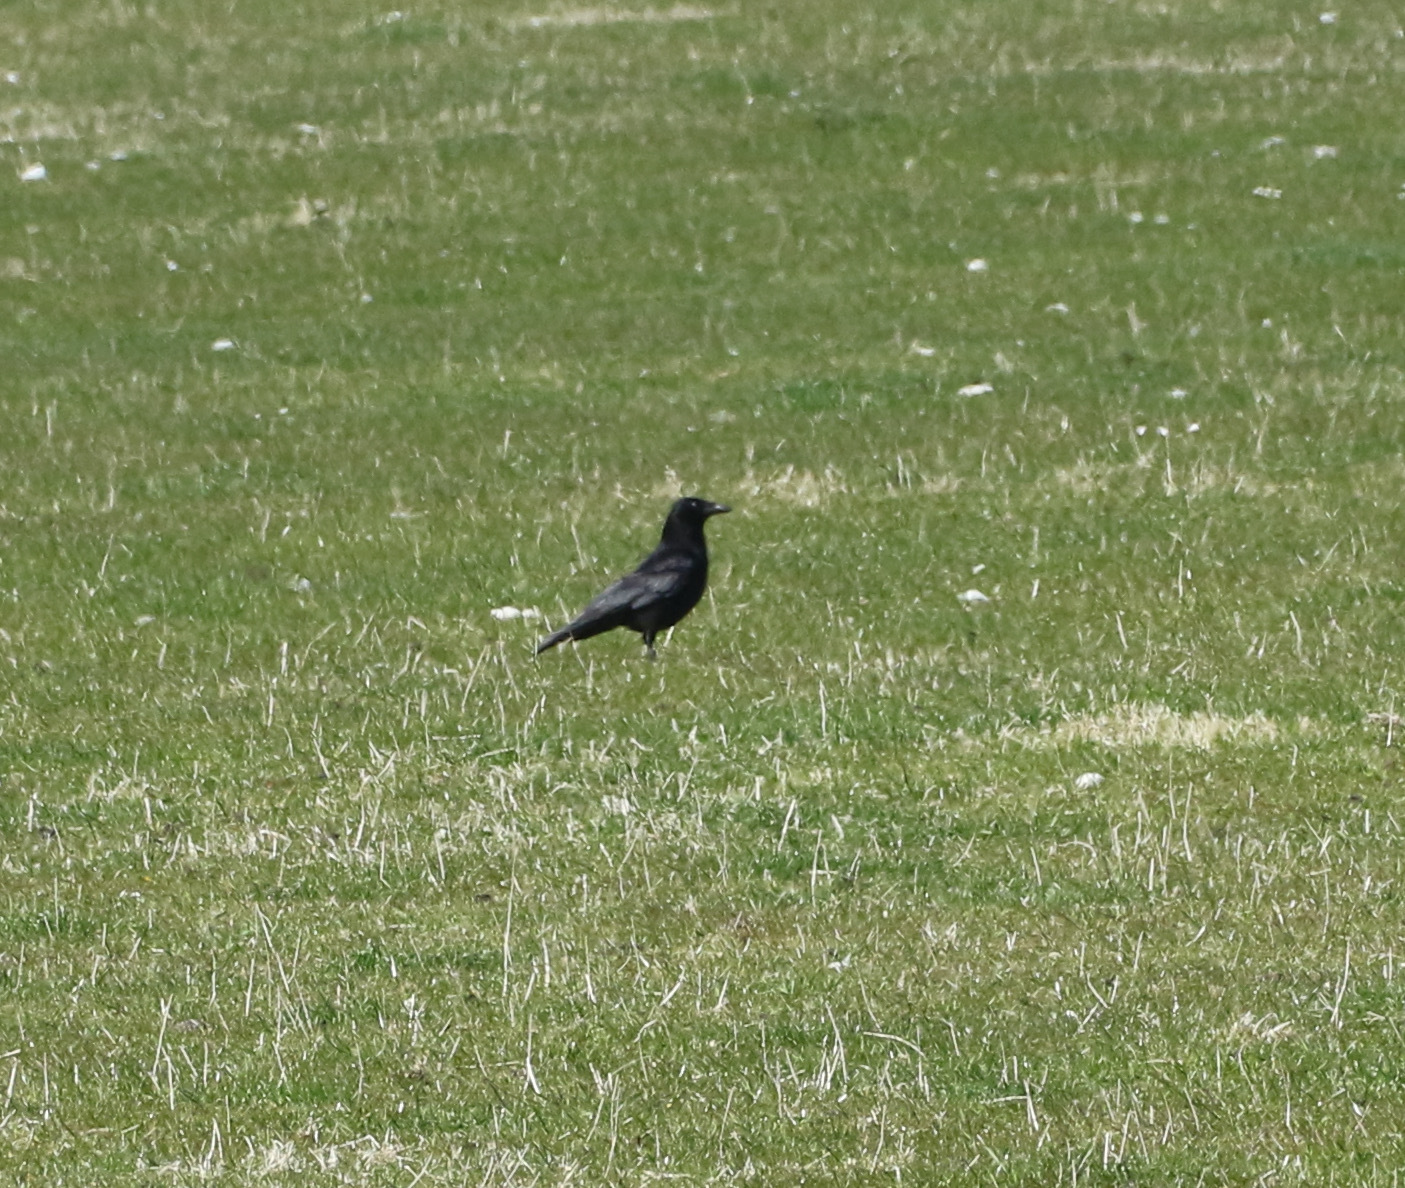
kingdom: Animalia
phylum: Chordata
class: Aves
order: Passeriformes
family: Corvidae
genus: Corvus
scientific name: Corvus corone
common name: Carrion crow
